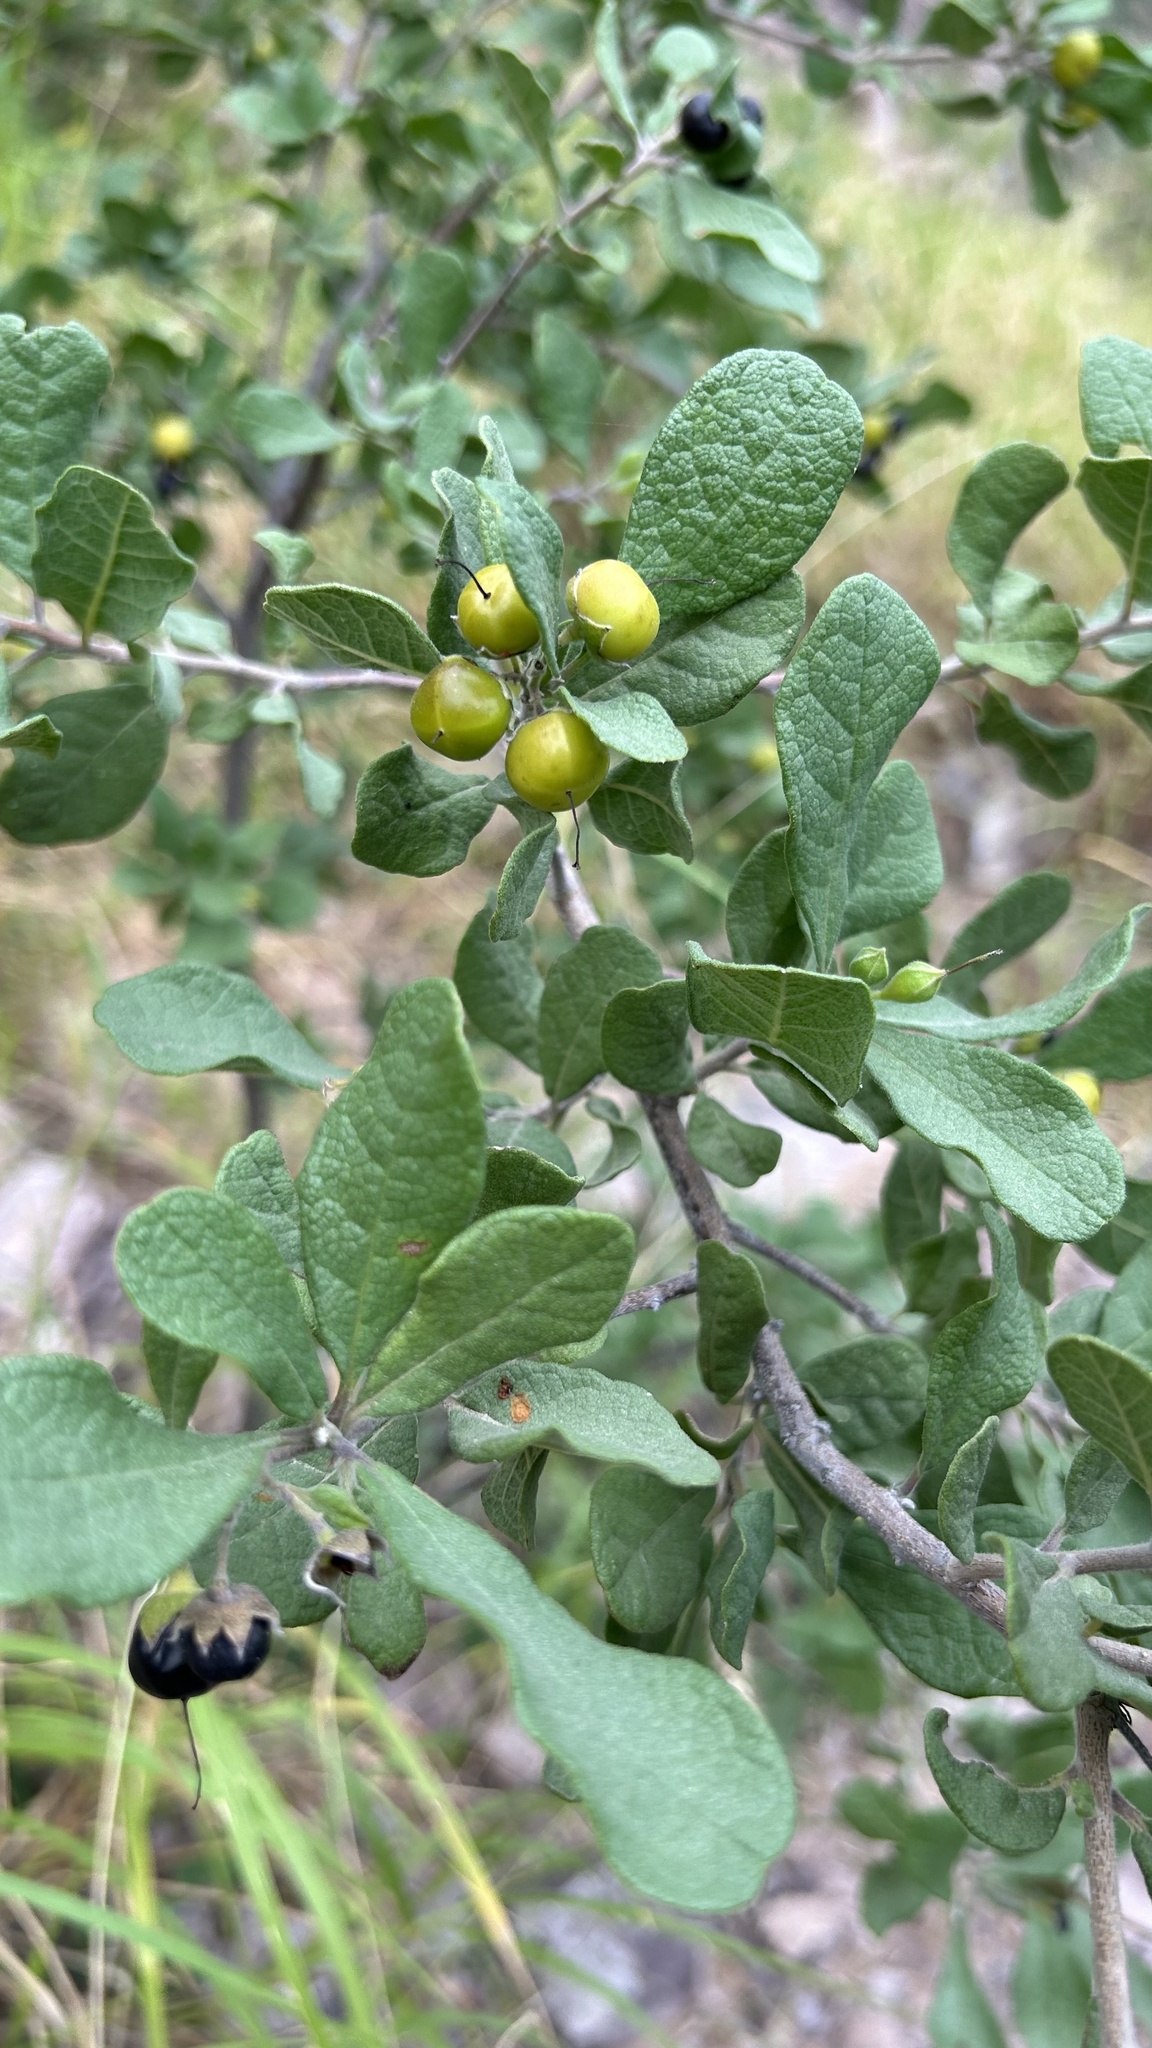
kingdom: Plantae
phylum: Tracheophyta
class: Magnoliopsida
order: Boraginales
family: Ehretiaceae
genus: Bourreria
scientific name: Bourreria sonorae
